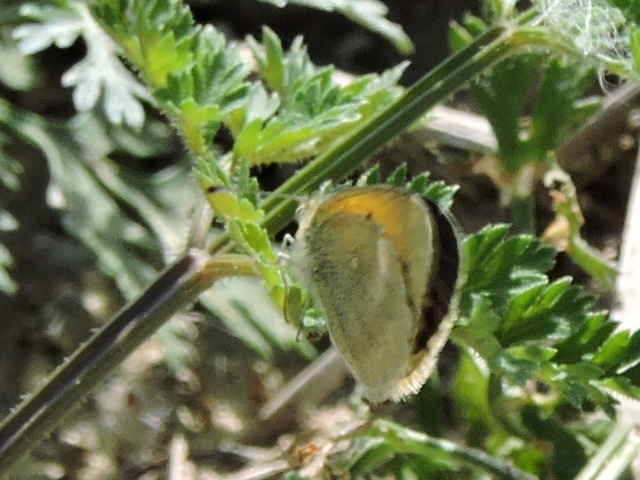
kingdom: Animalia
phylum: Arthropoda
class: Insecta
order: Lepidoptera
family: Pieridae
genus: Nathalis
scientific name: Nathalis iole
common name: Dainty sulphur
